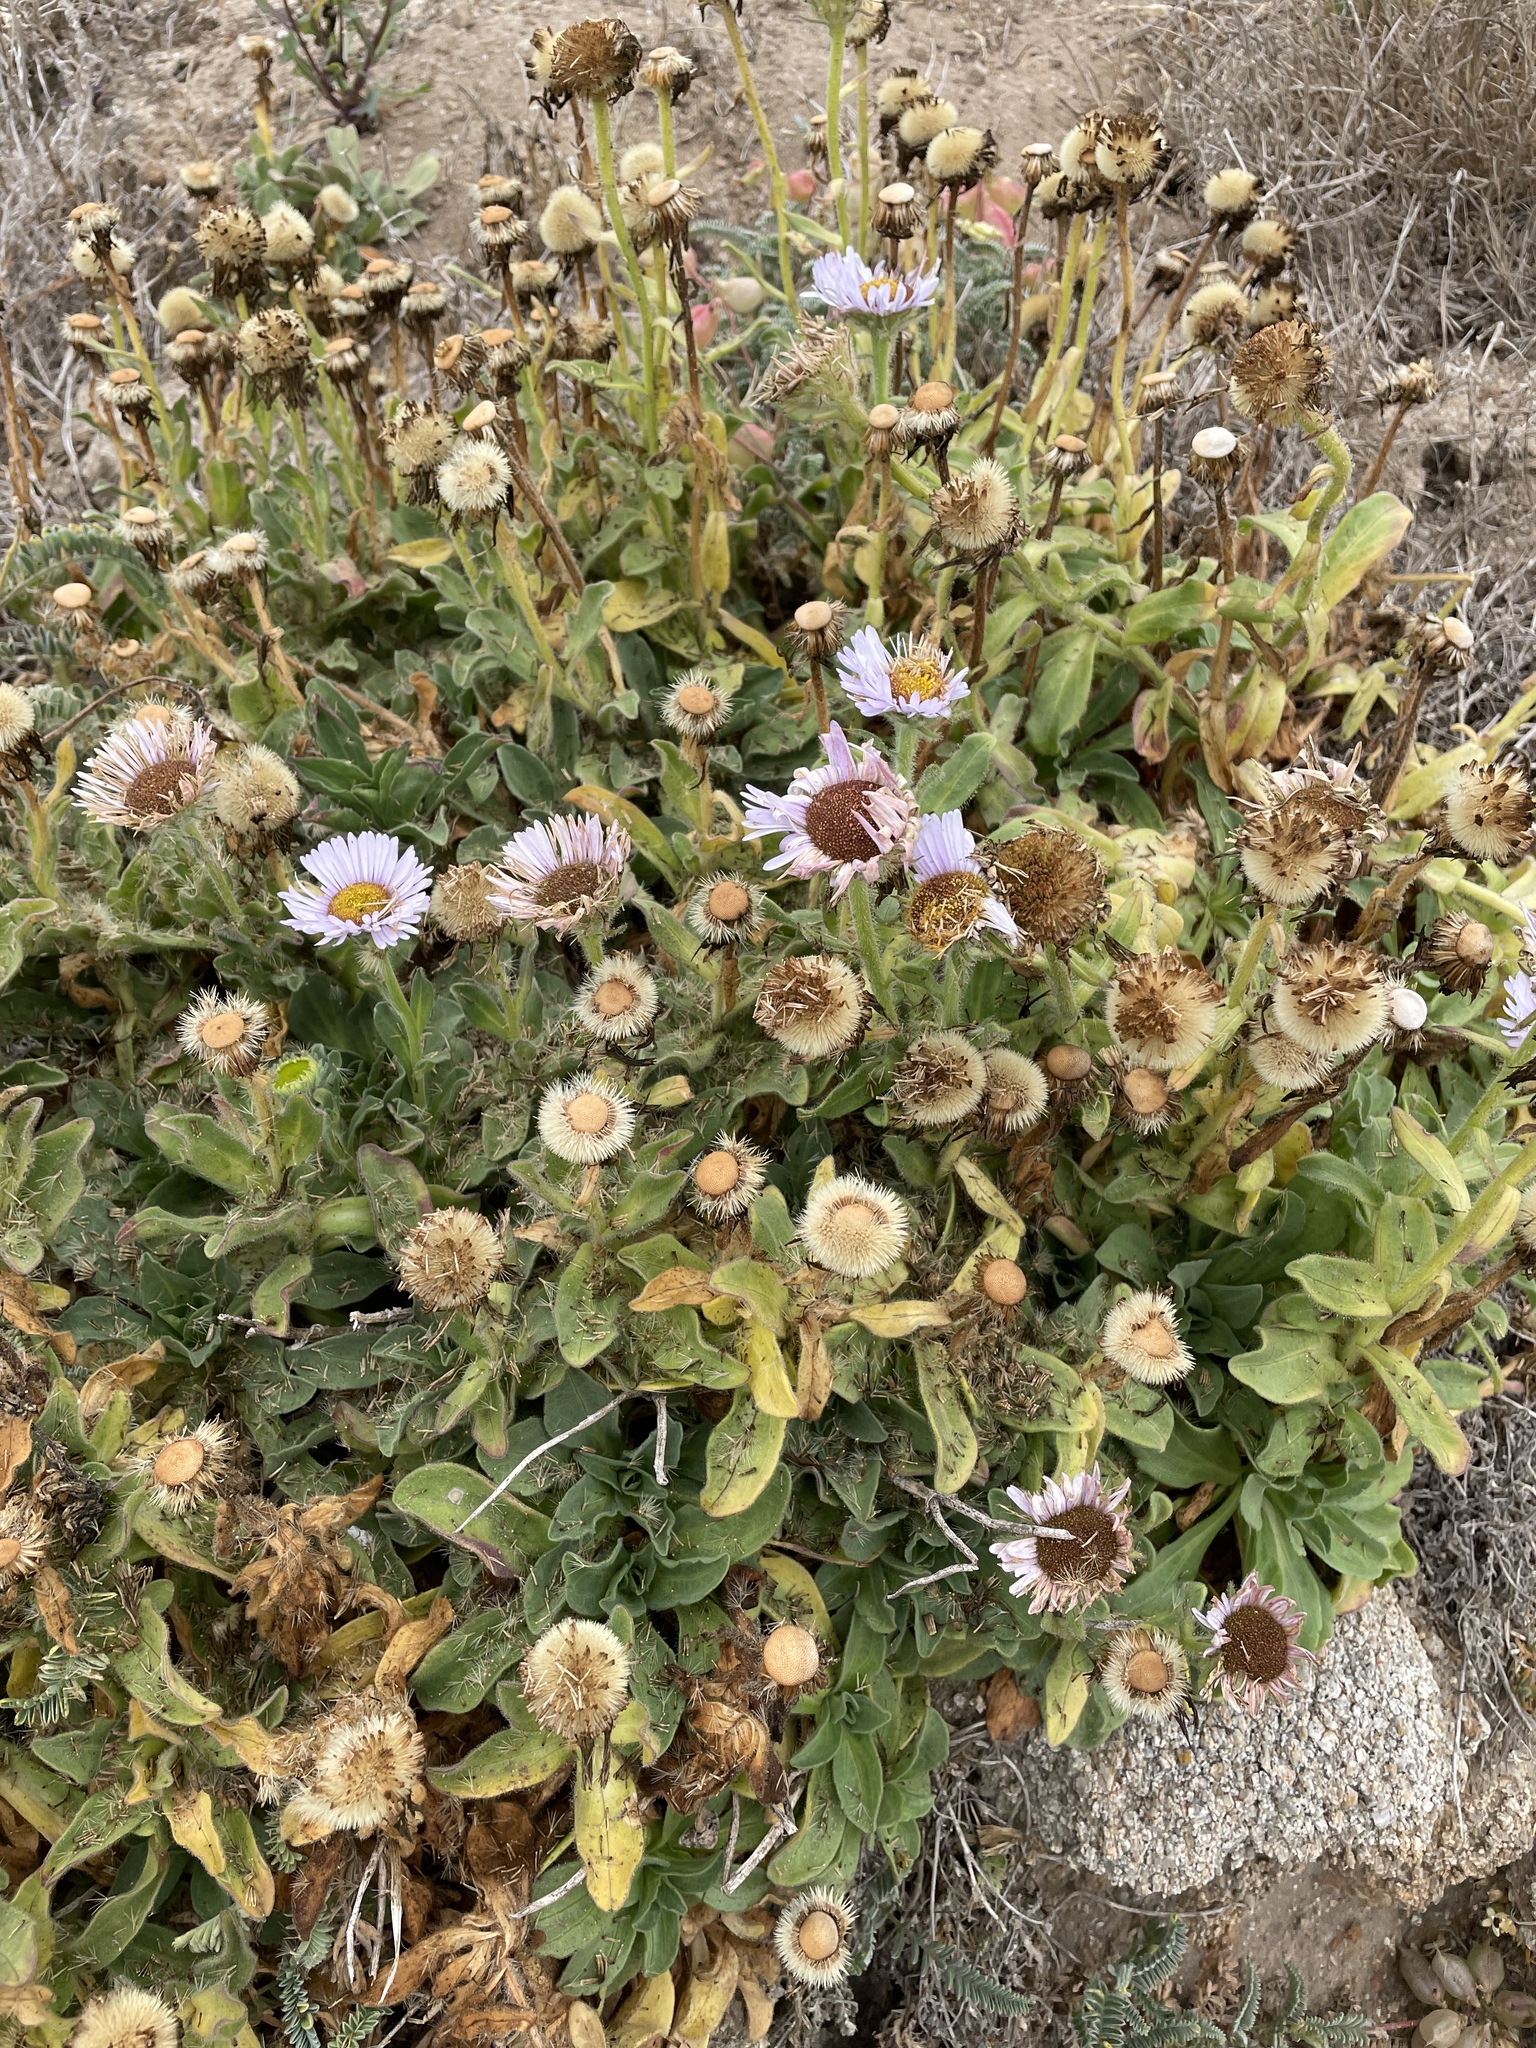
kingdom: Plantae
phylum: Tracheophyta
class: Magnoliopsida
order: Asterales
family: Asteraceae
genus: Erigeron
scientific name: Erigeron glaucus
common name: Seaside daisy
